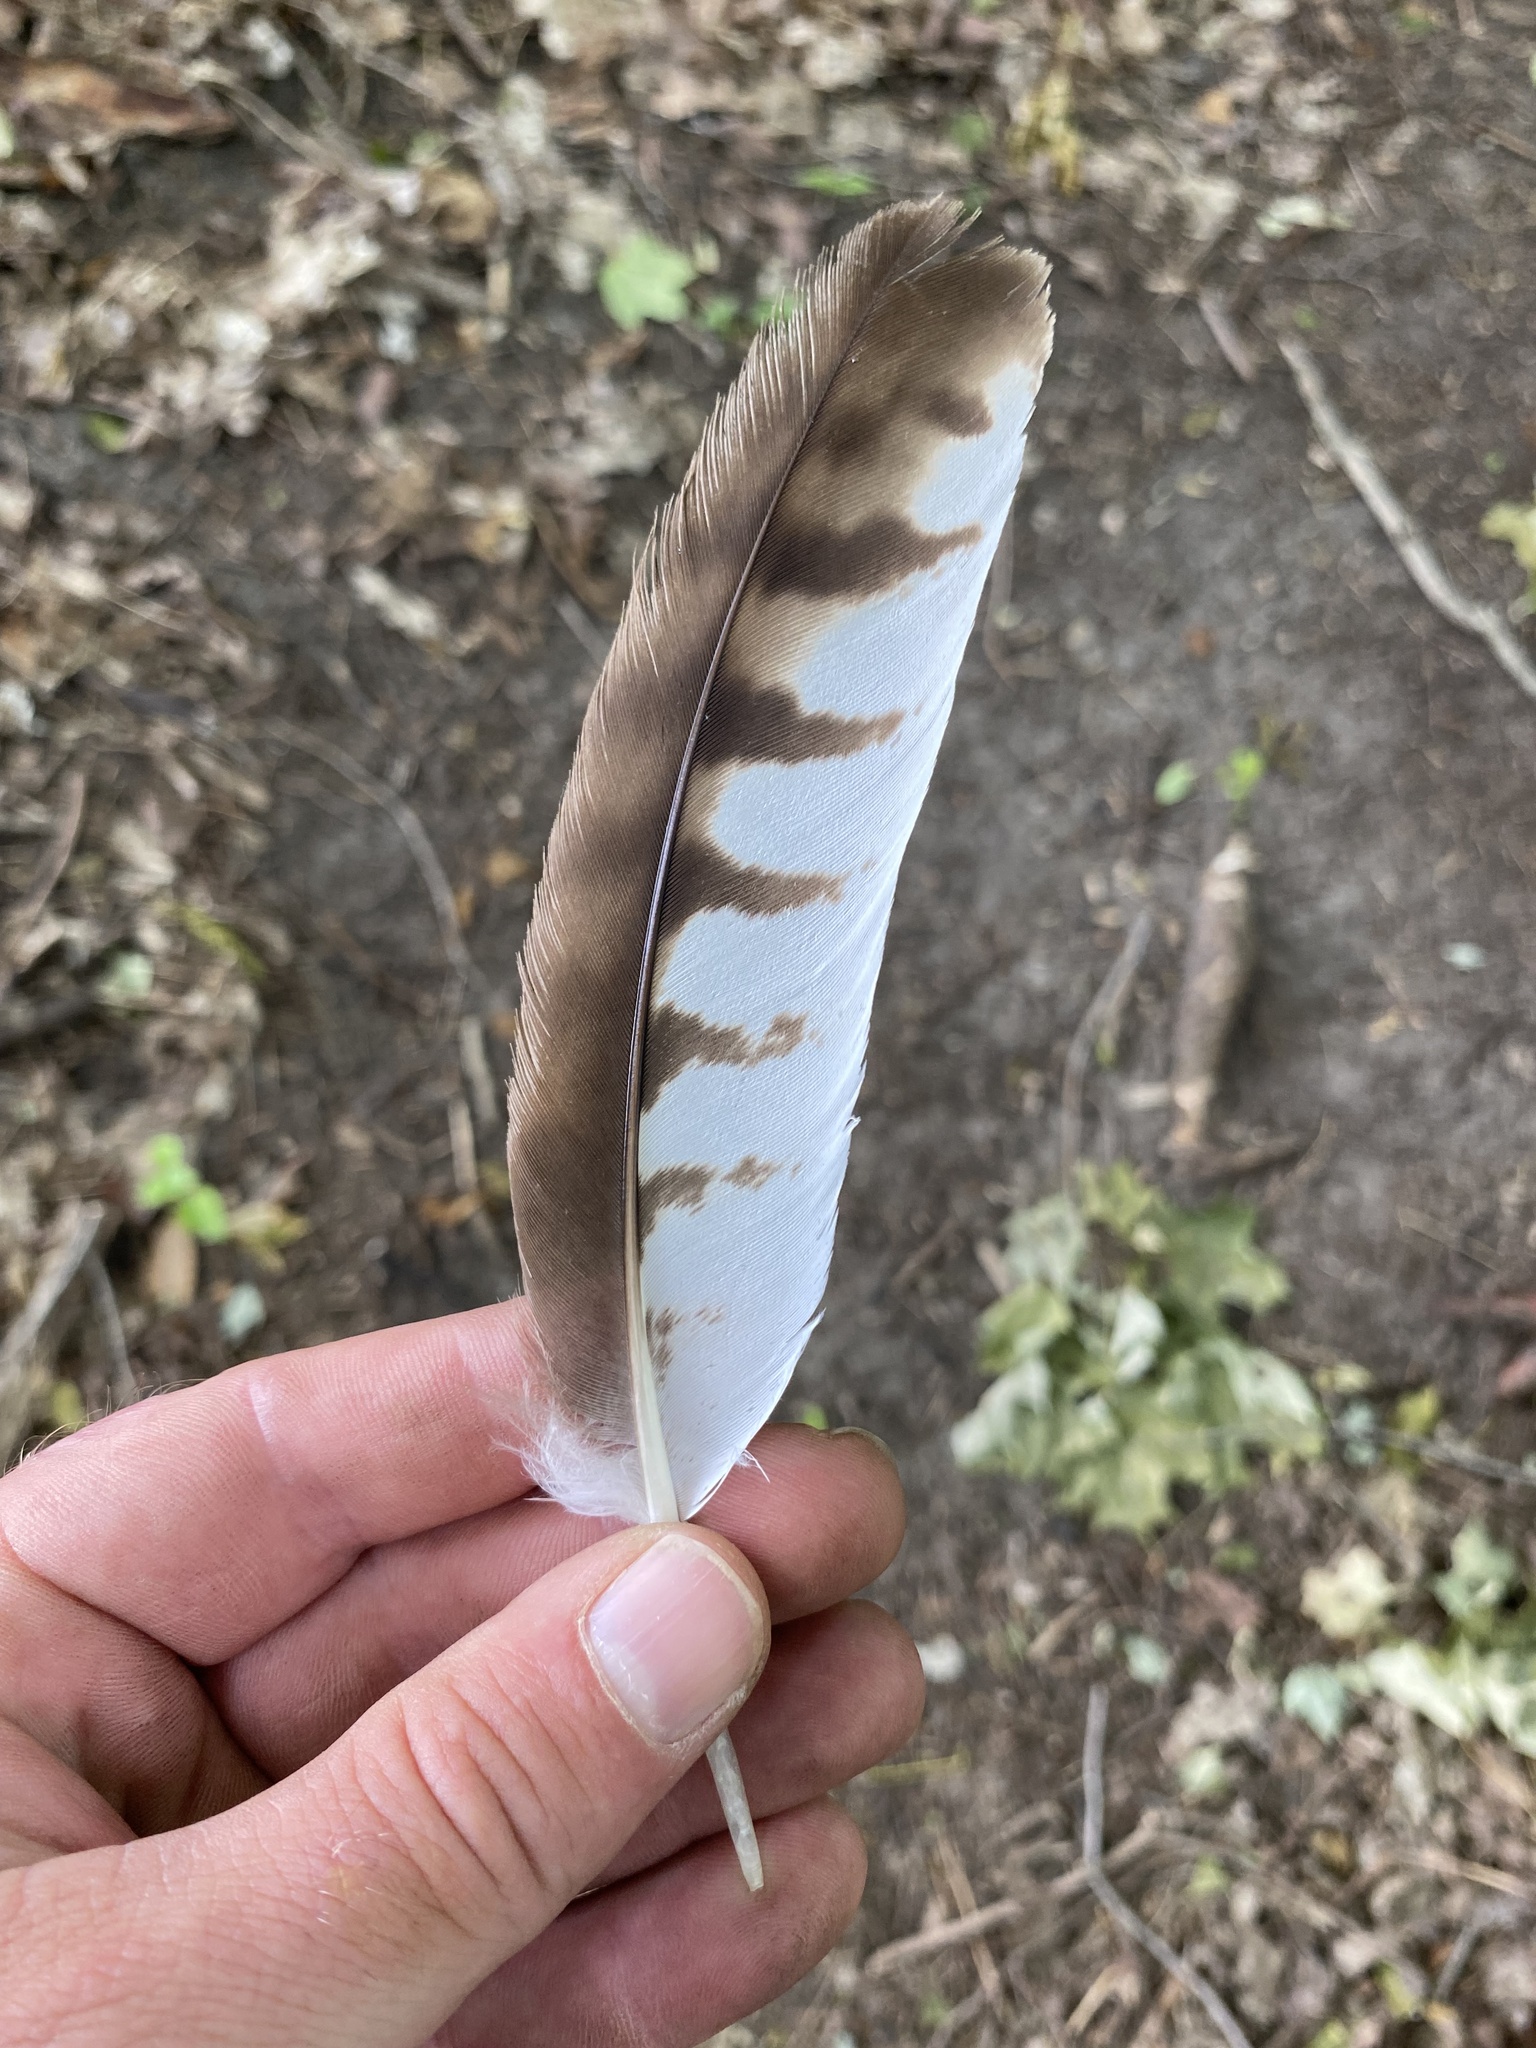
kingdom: Animalia
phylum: Chordata
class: Aves
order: Accipitriformes
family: Accipitridae
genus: Buteo
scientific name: Buteo platypterus
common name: Broad-winged hawk
